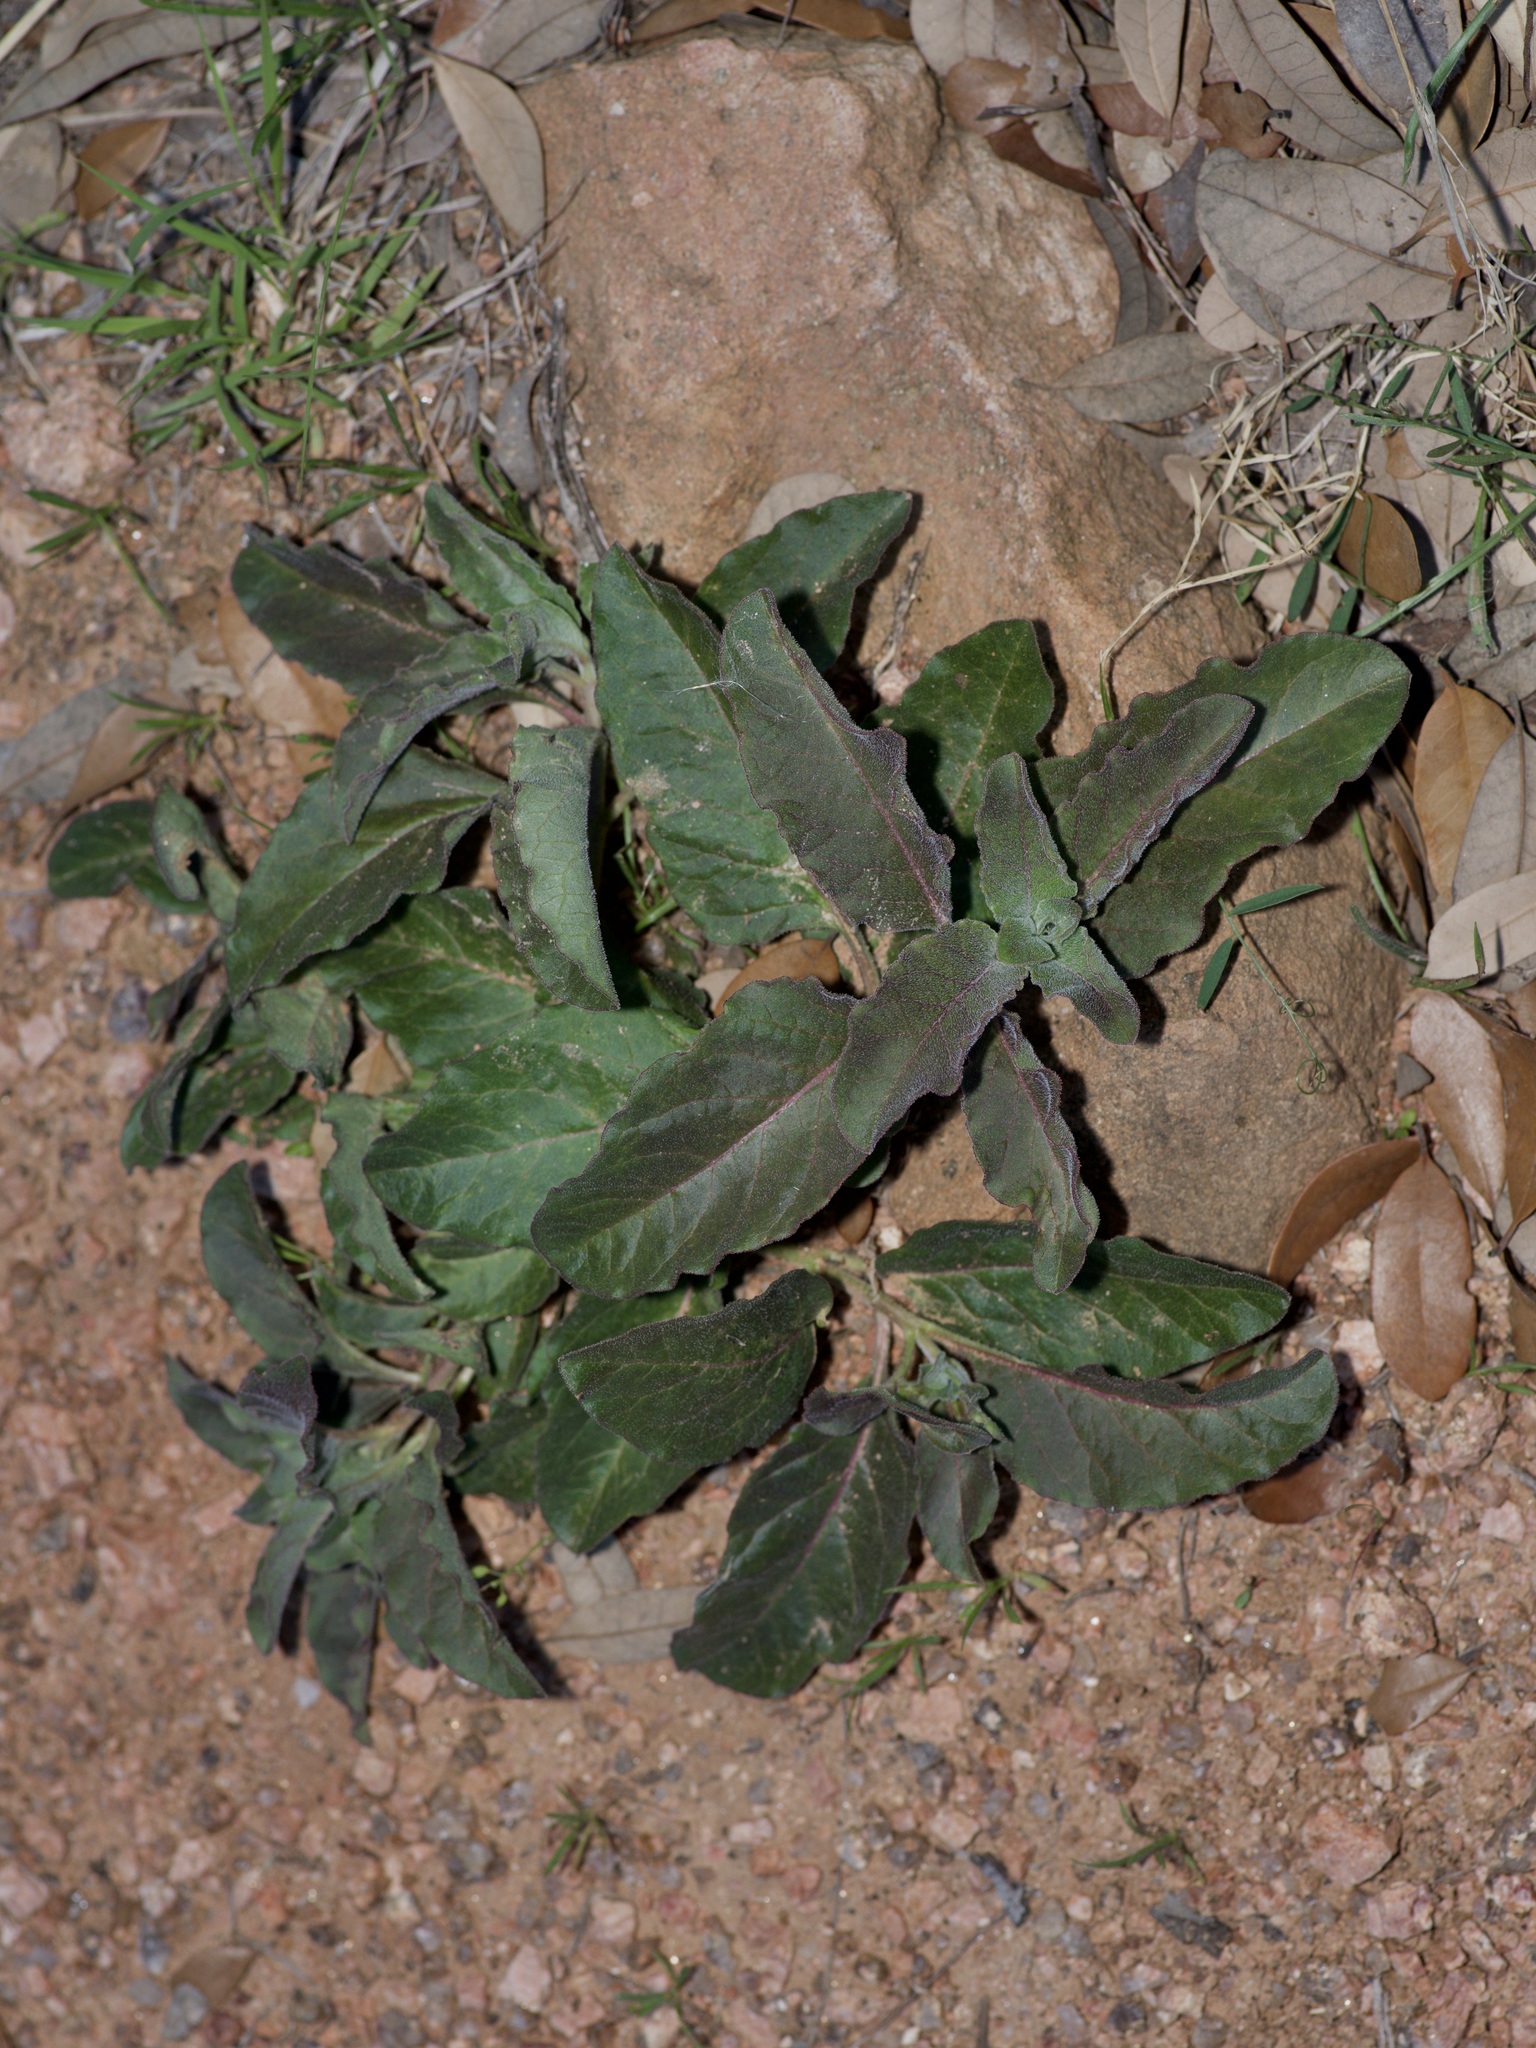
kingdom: Plantae
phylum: Tracheophyta
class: Magnoliopsida
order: Gentianales
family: Apocynaceae
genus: Asclepias
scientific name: Asclepias oenotheroides
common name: Zizotes milkweed
